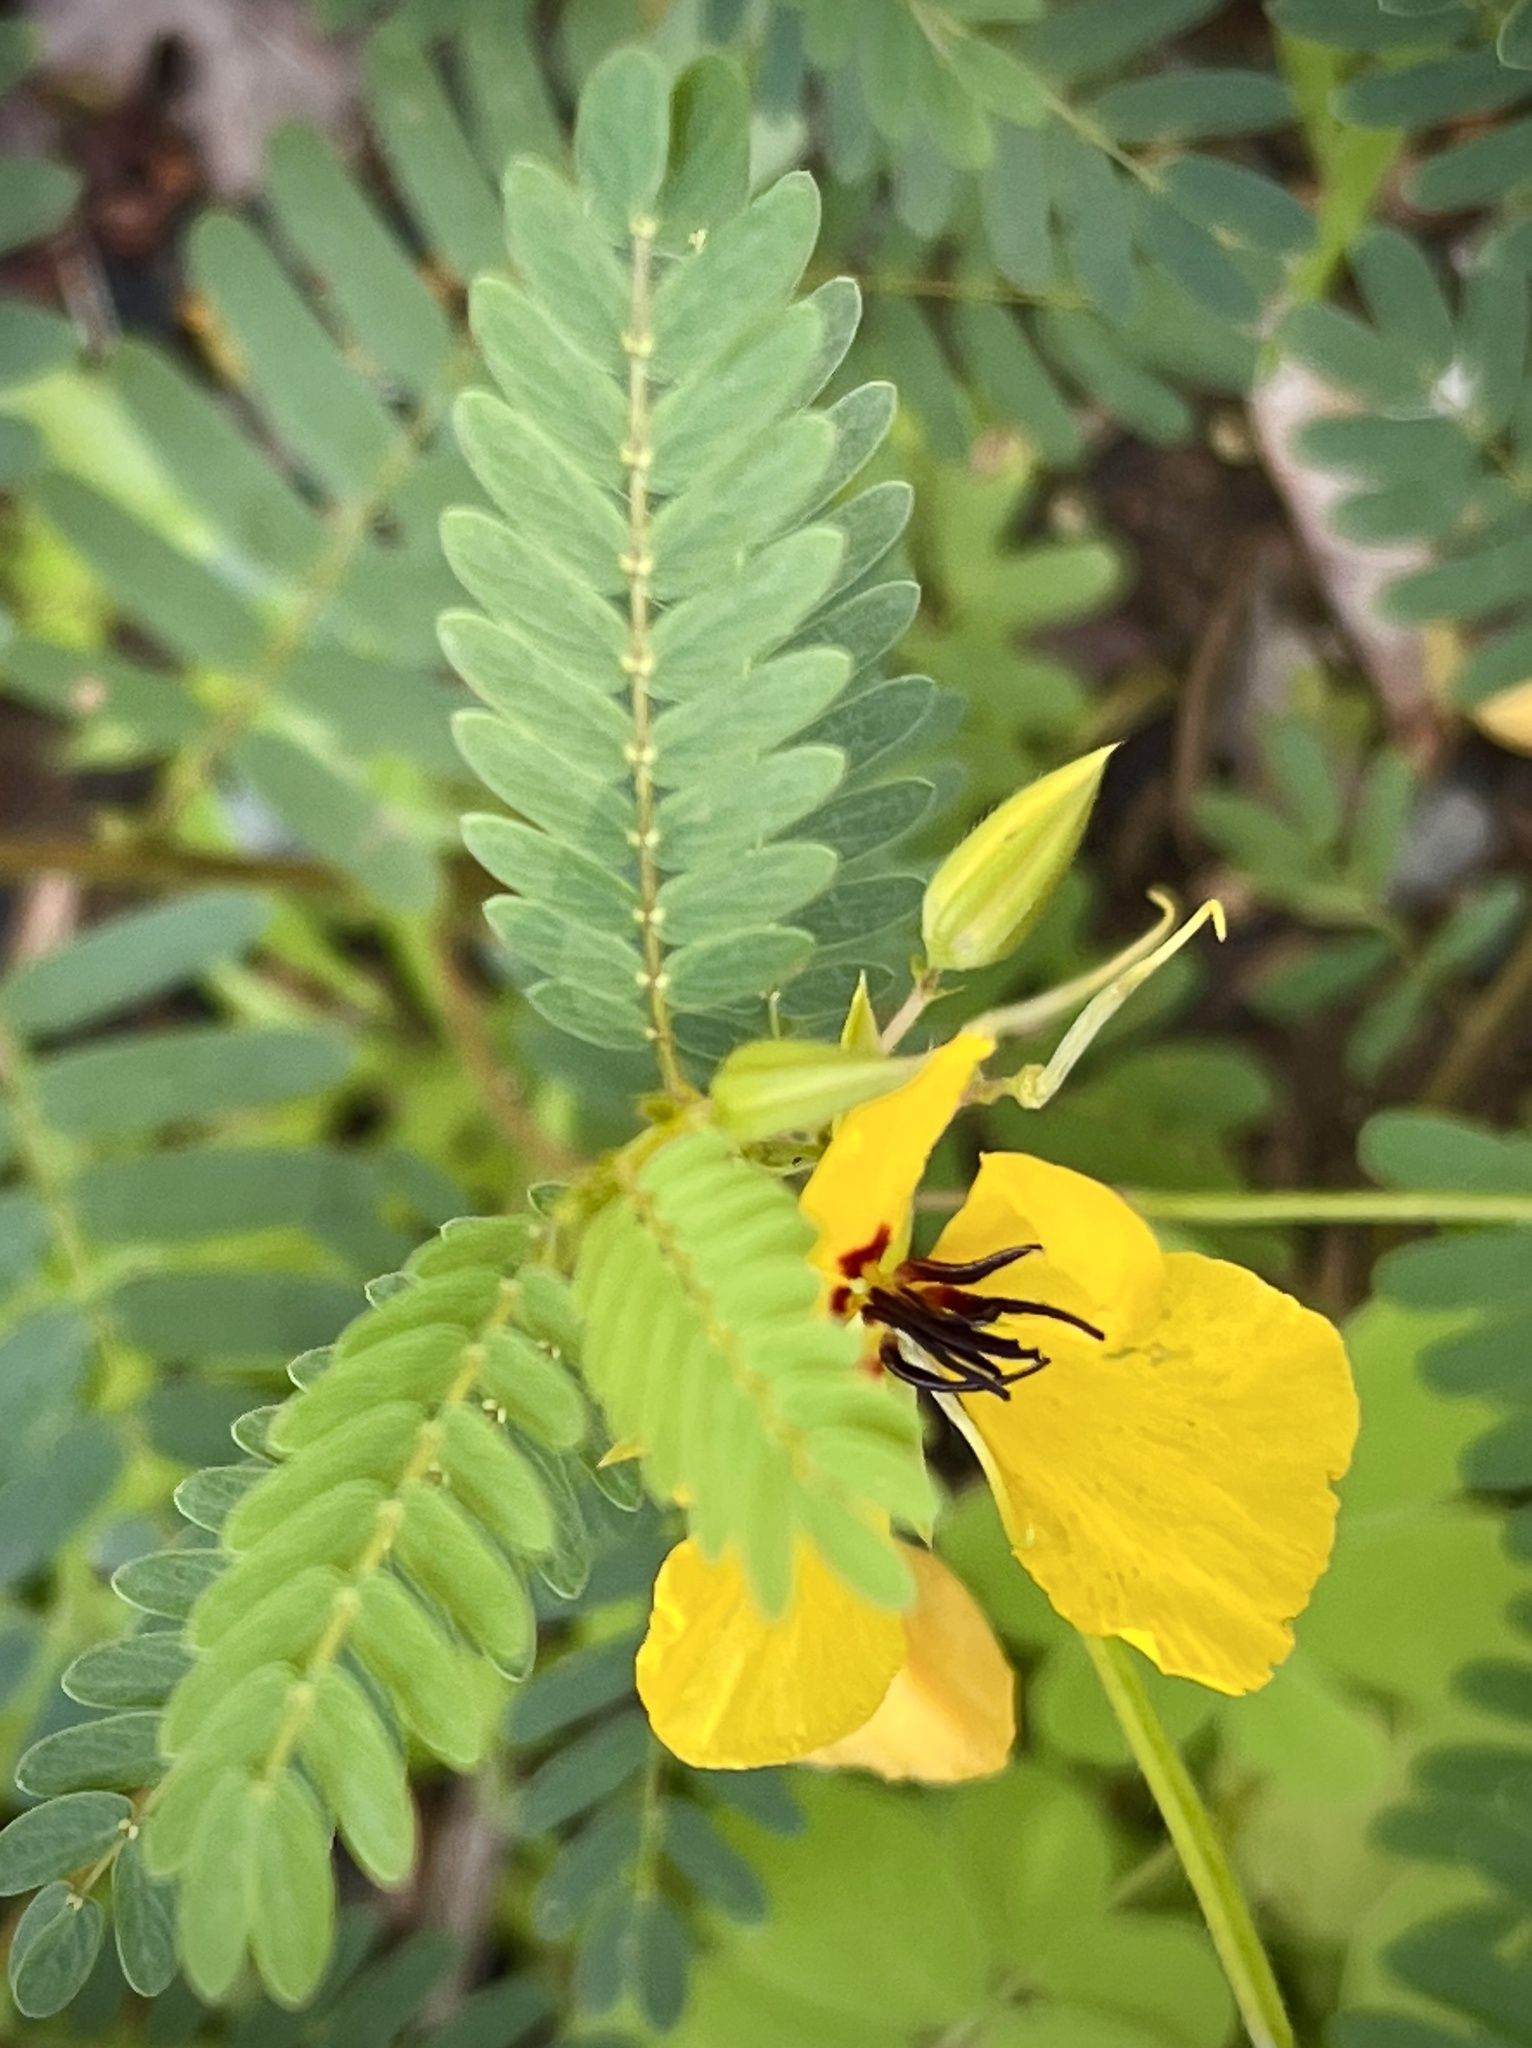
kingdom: Plantae
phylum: Tracheophyta
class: Magnoliopsida
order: Fabales
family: Fabaceae
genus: Chamaecrista
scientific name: Chamaecrista fasciculata
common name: Golden cassia
